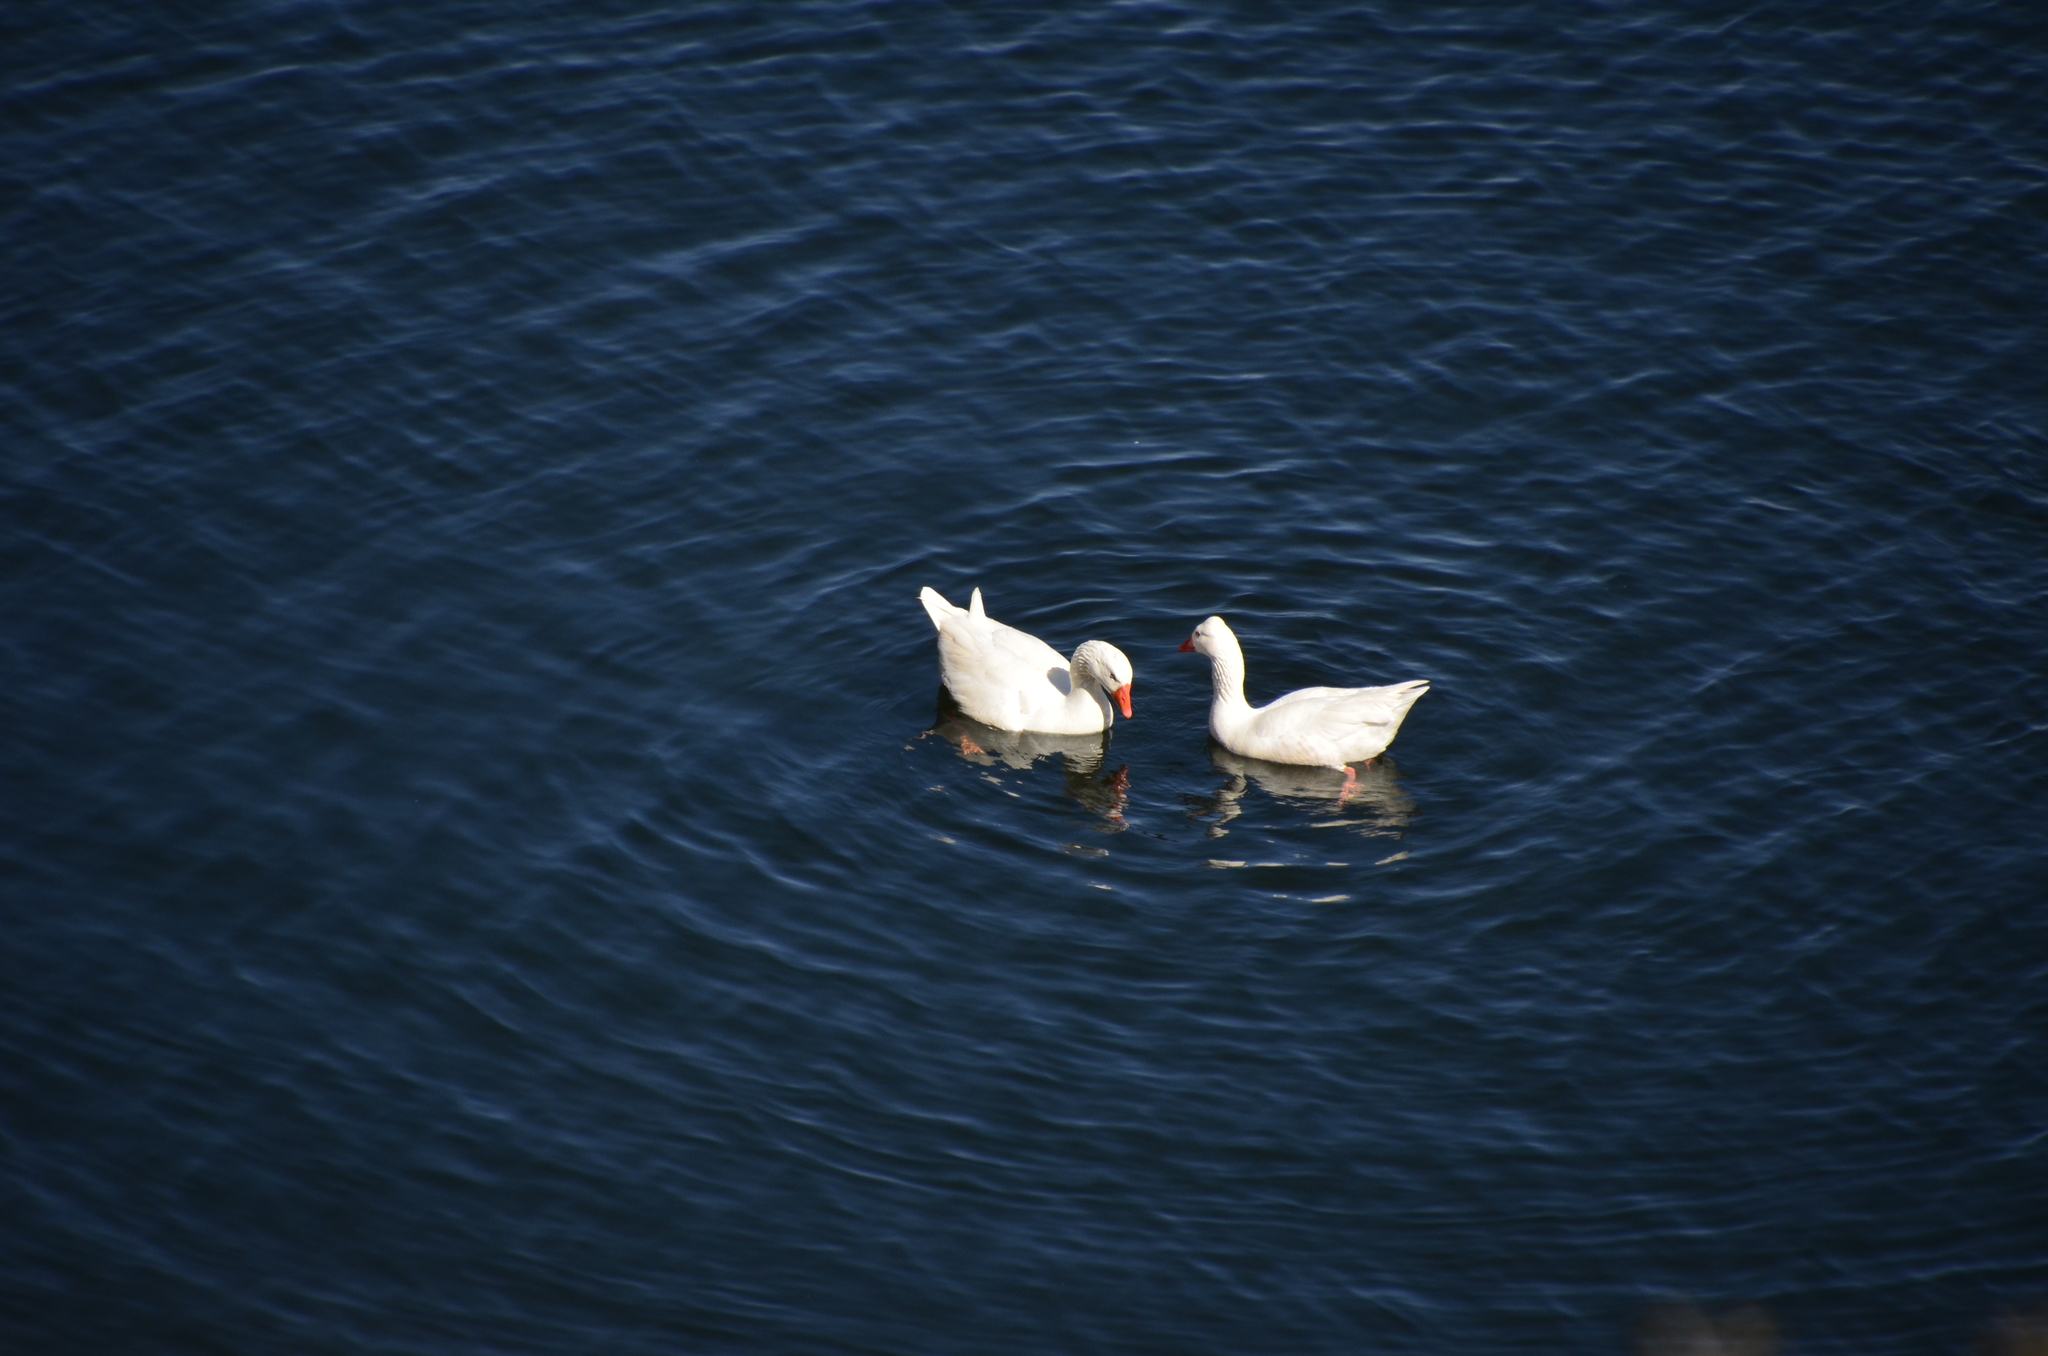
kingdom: Animalia
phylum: Chordata
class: Aves
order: Anseriformes
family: Anatidae
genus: Anser
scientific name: Anser anser
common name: Greylag goose
